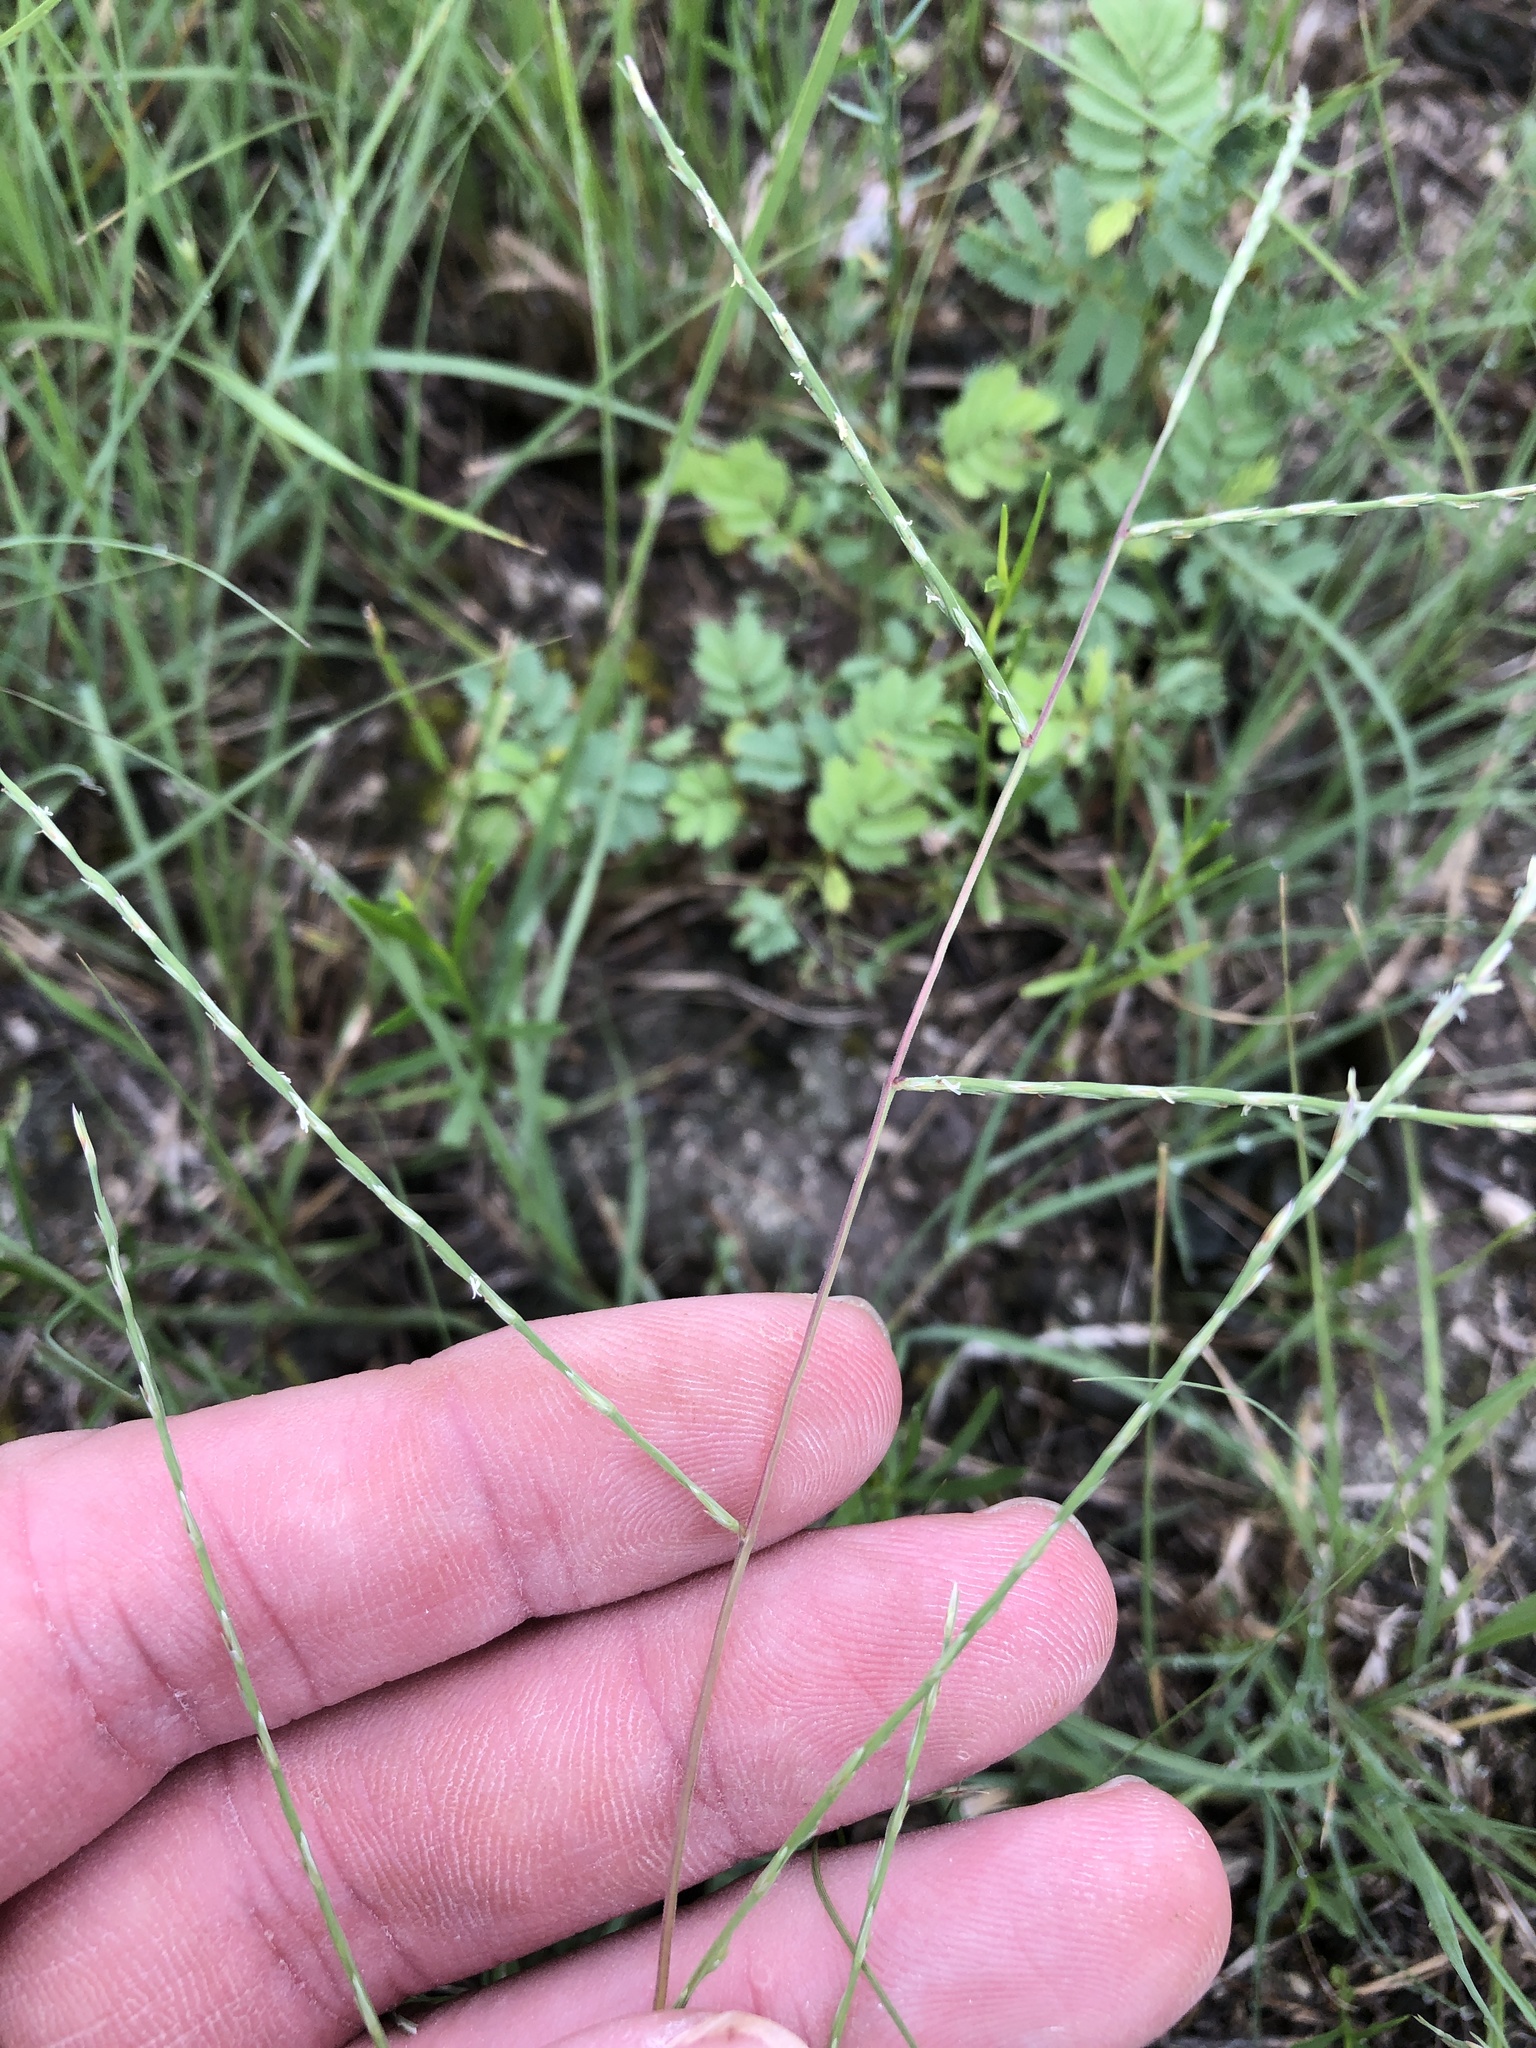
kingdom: Plantae
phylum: Tracheophyta
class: Liliopsida
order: Poales
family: Poaceae
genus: Muhlenbergia
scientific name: Muhlenbergia paniculata
